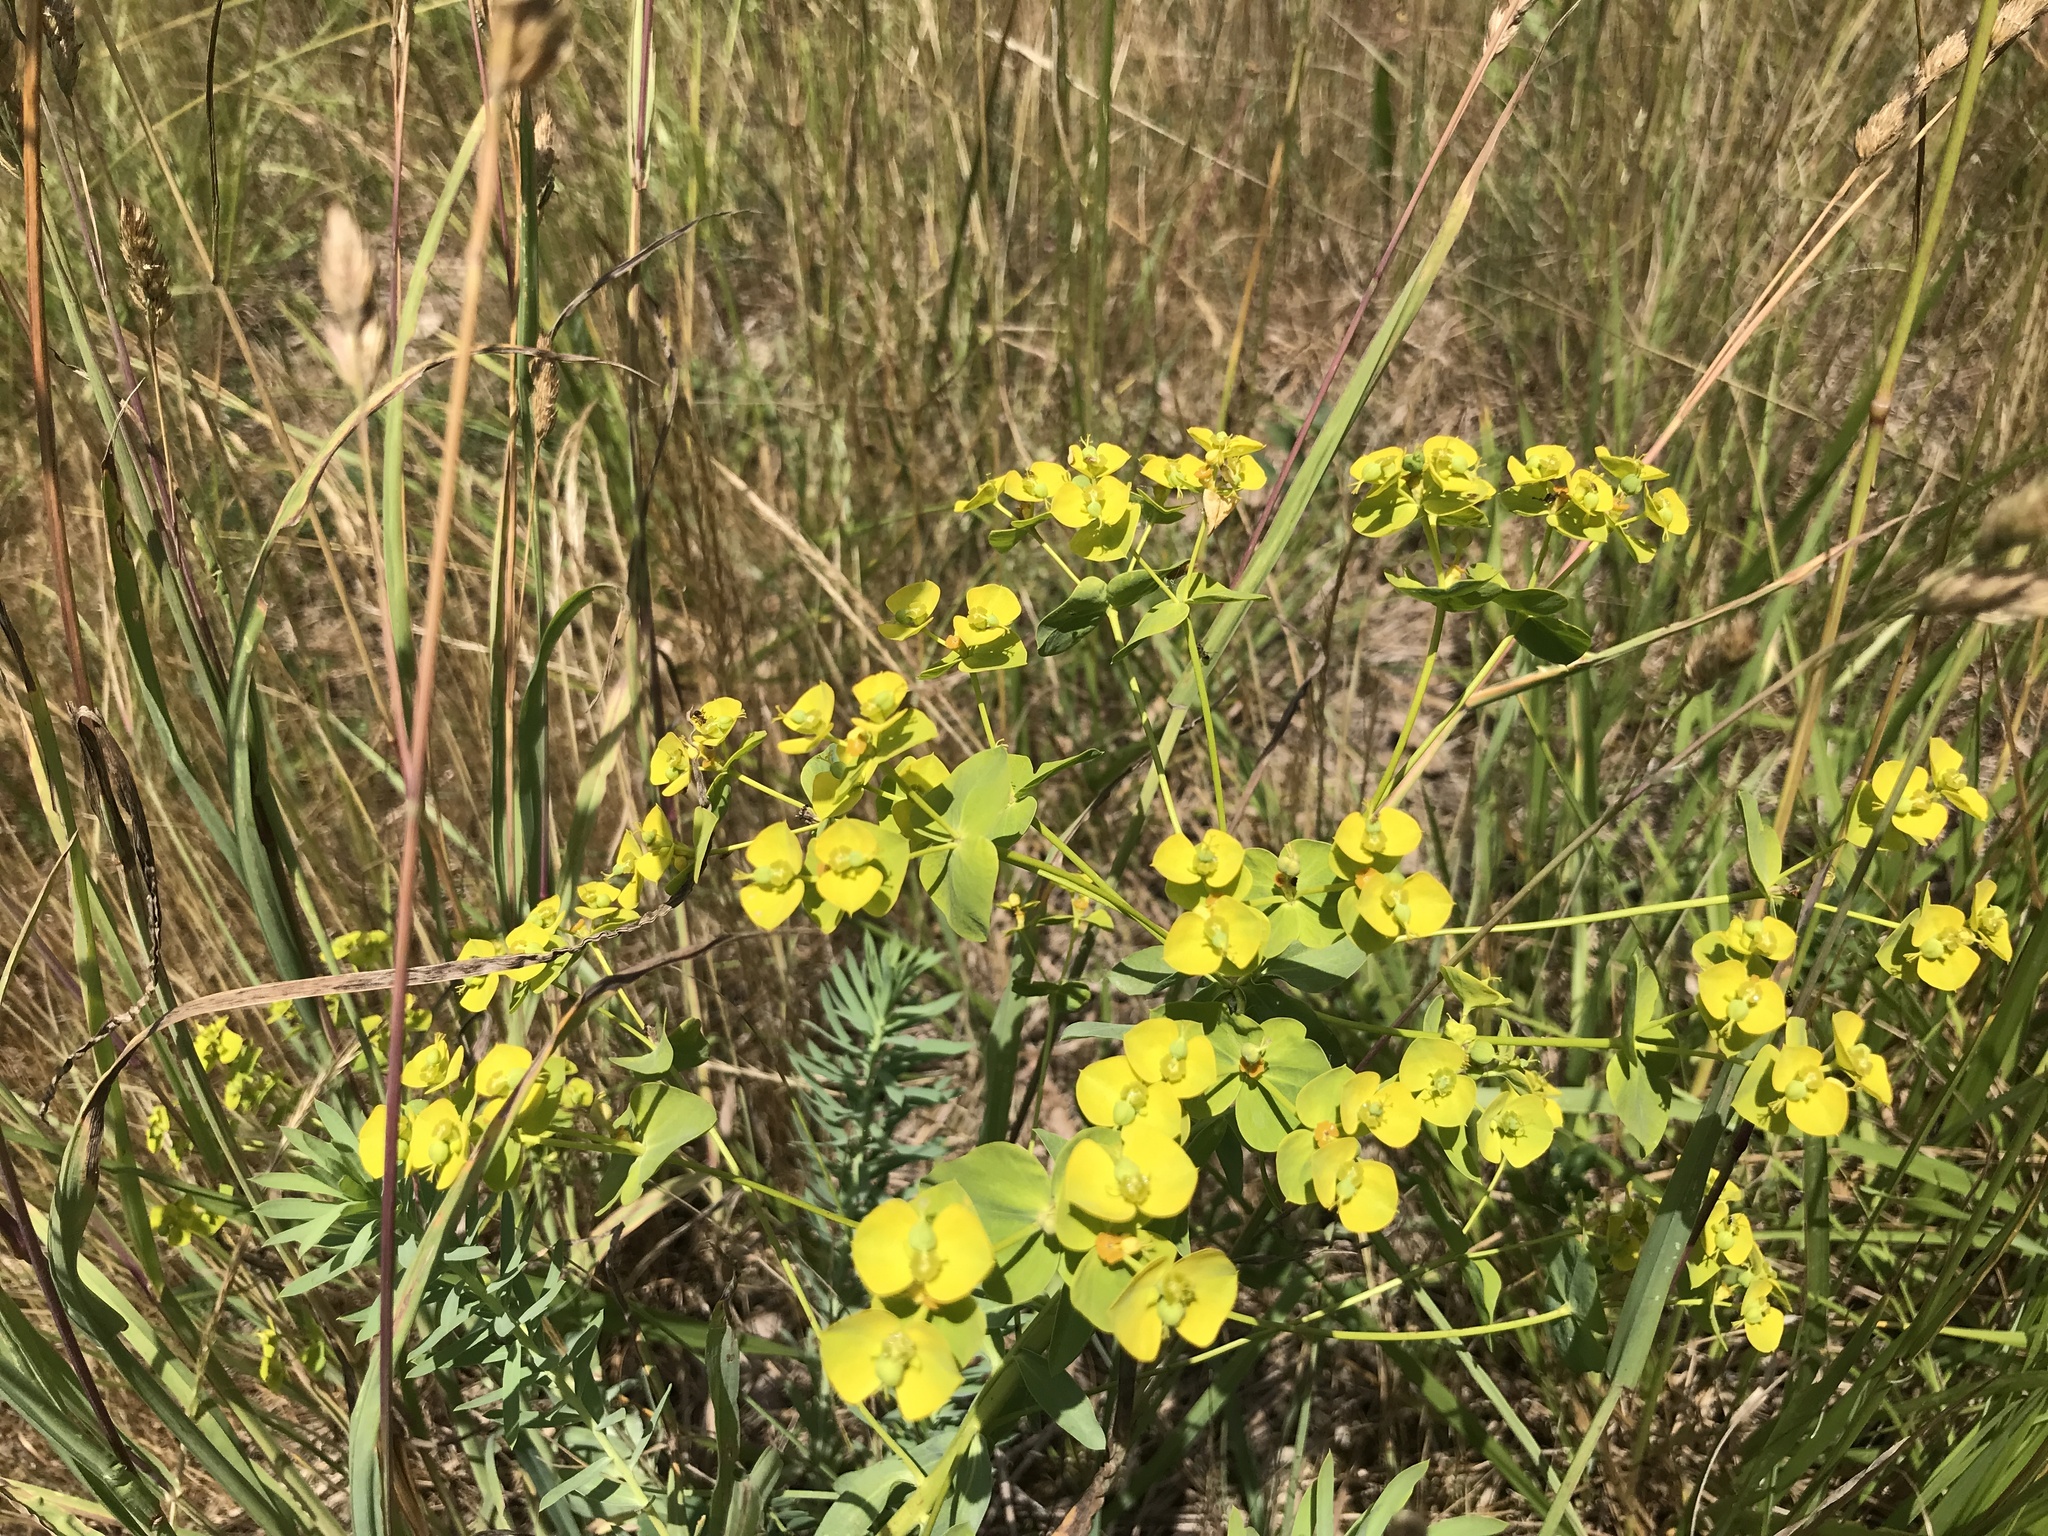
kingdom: Plantae
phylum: Tracheophyta
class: Magnoliopsida
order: Malpighiales
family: Euphorbiaceae
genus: Euphorbia
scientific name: Euphorbia seguieriana
